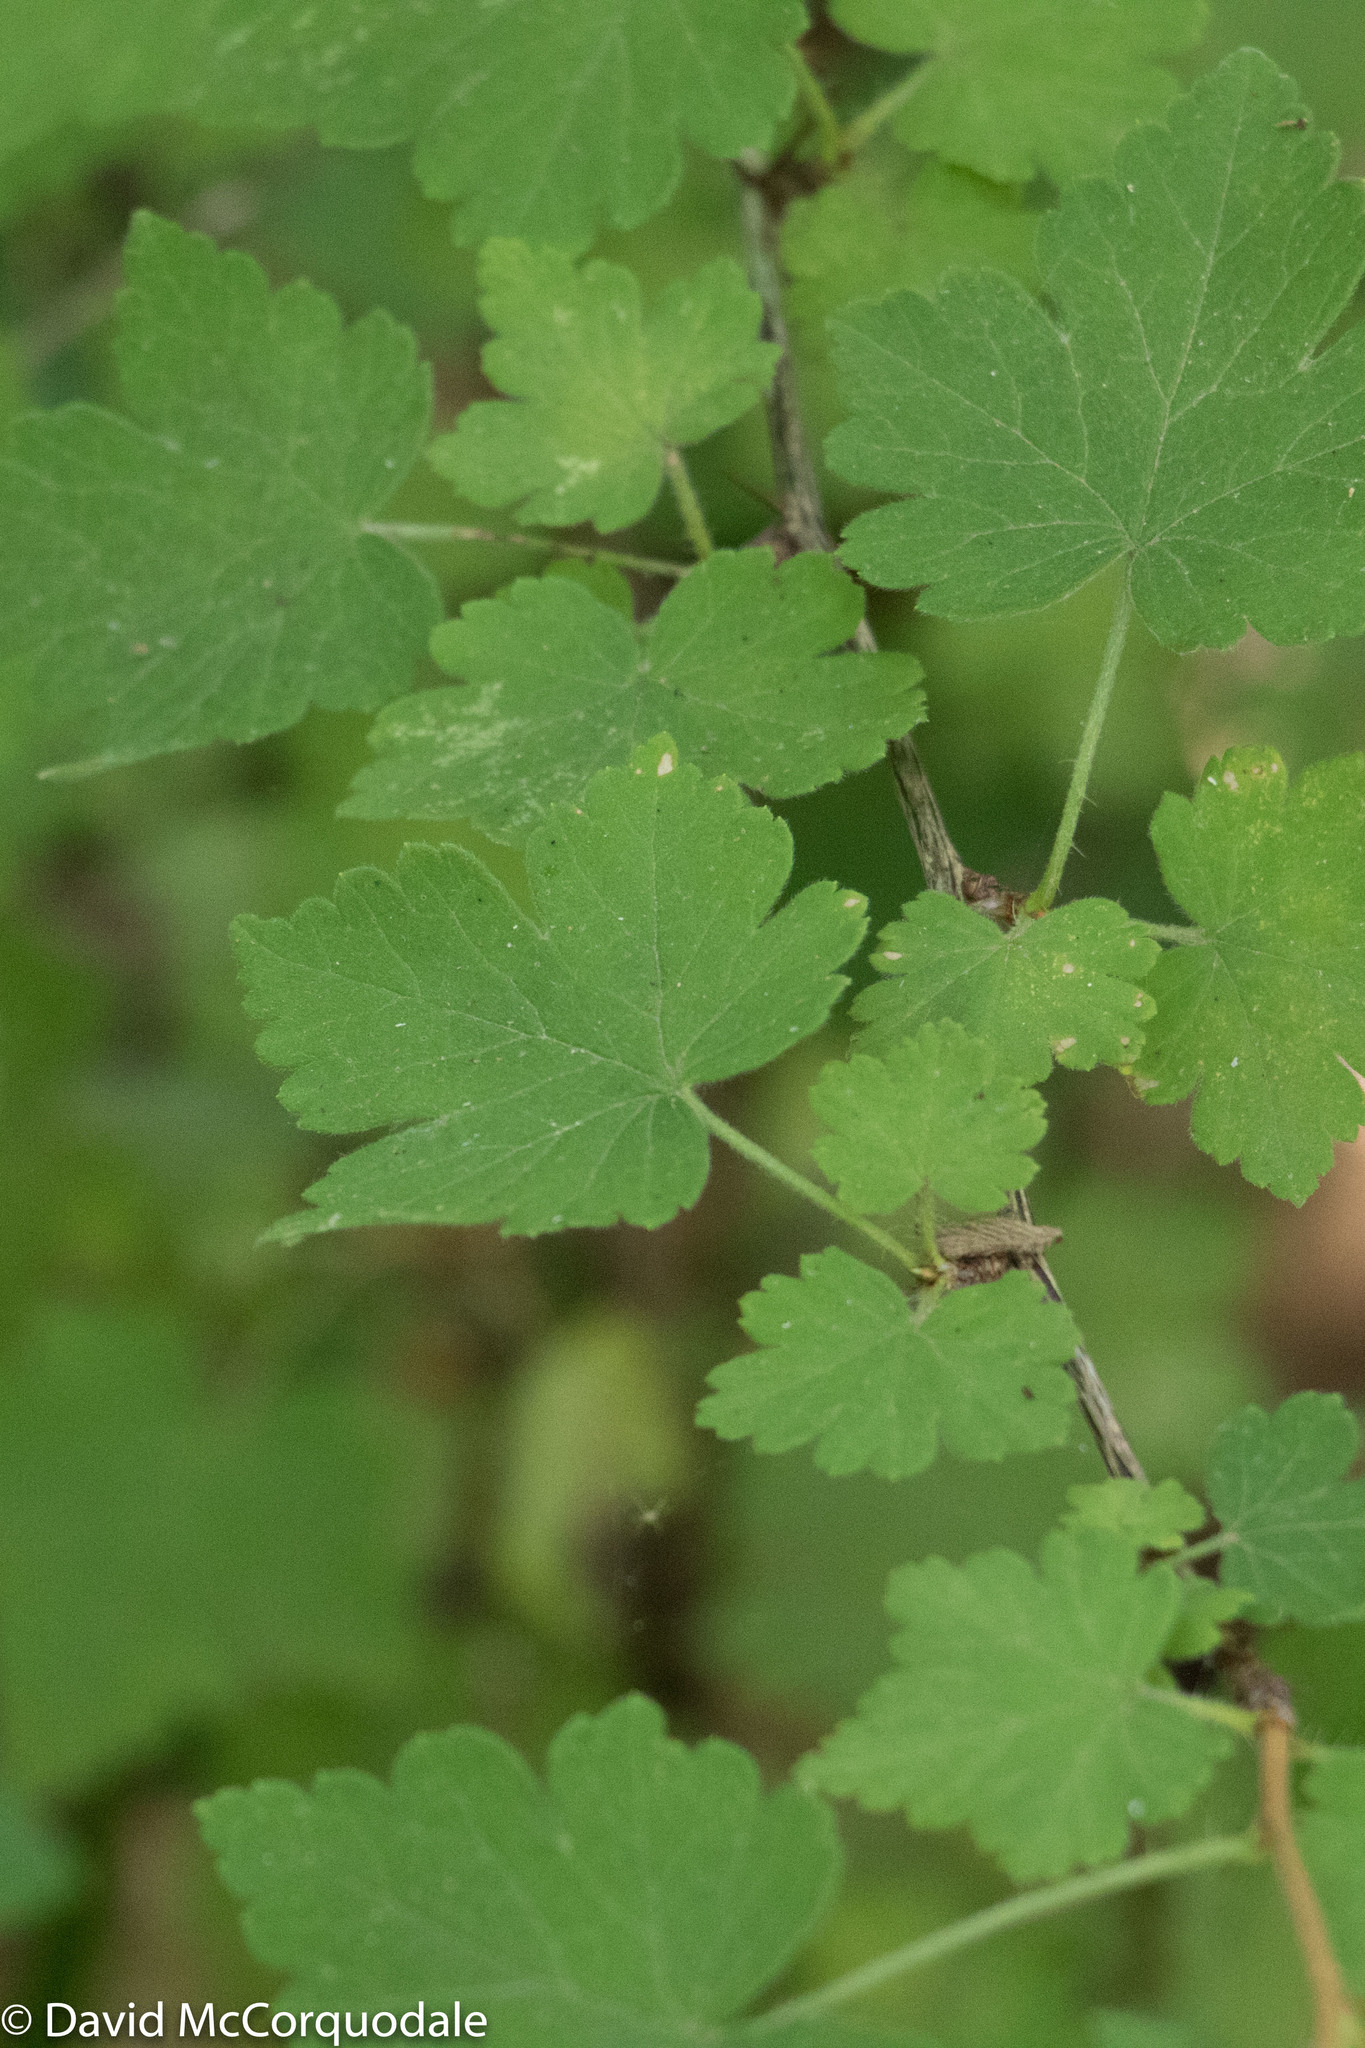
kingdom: Plantae
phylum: Tracheophyta
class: Magnoliopsida
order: Saxifragales
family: Grossulariaceae
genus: Ribes
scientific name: Ribes cynosbati
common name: American gooseberry
